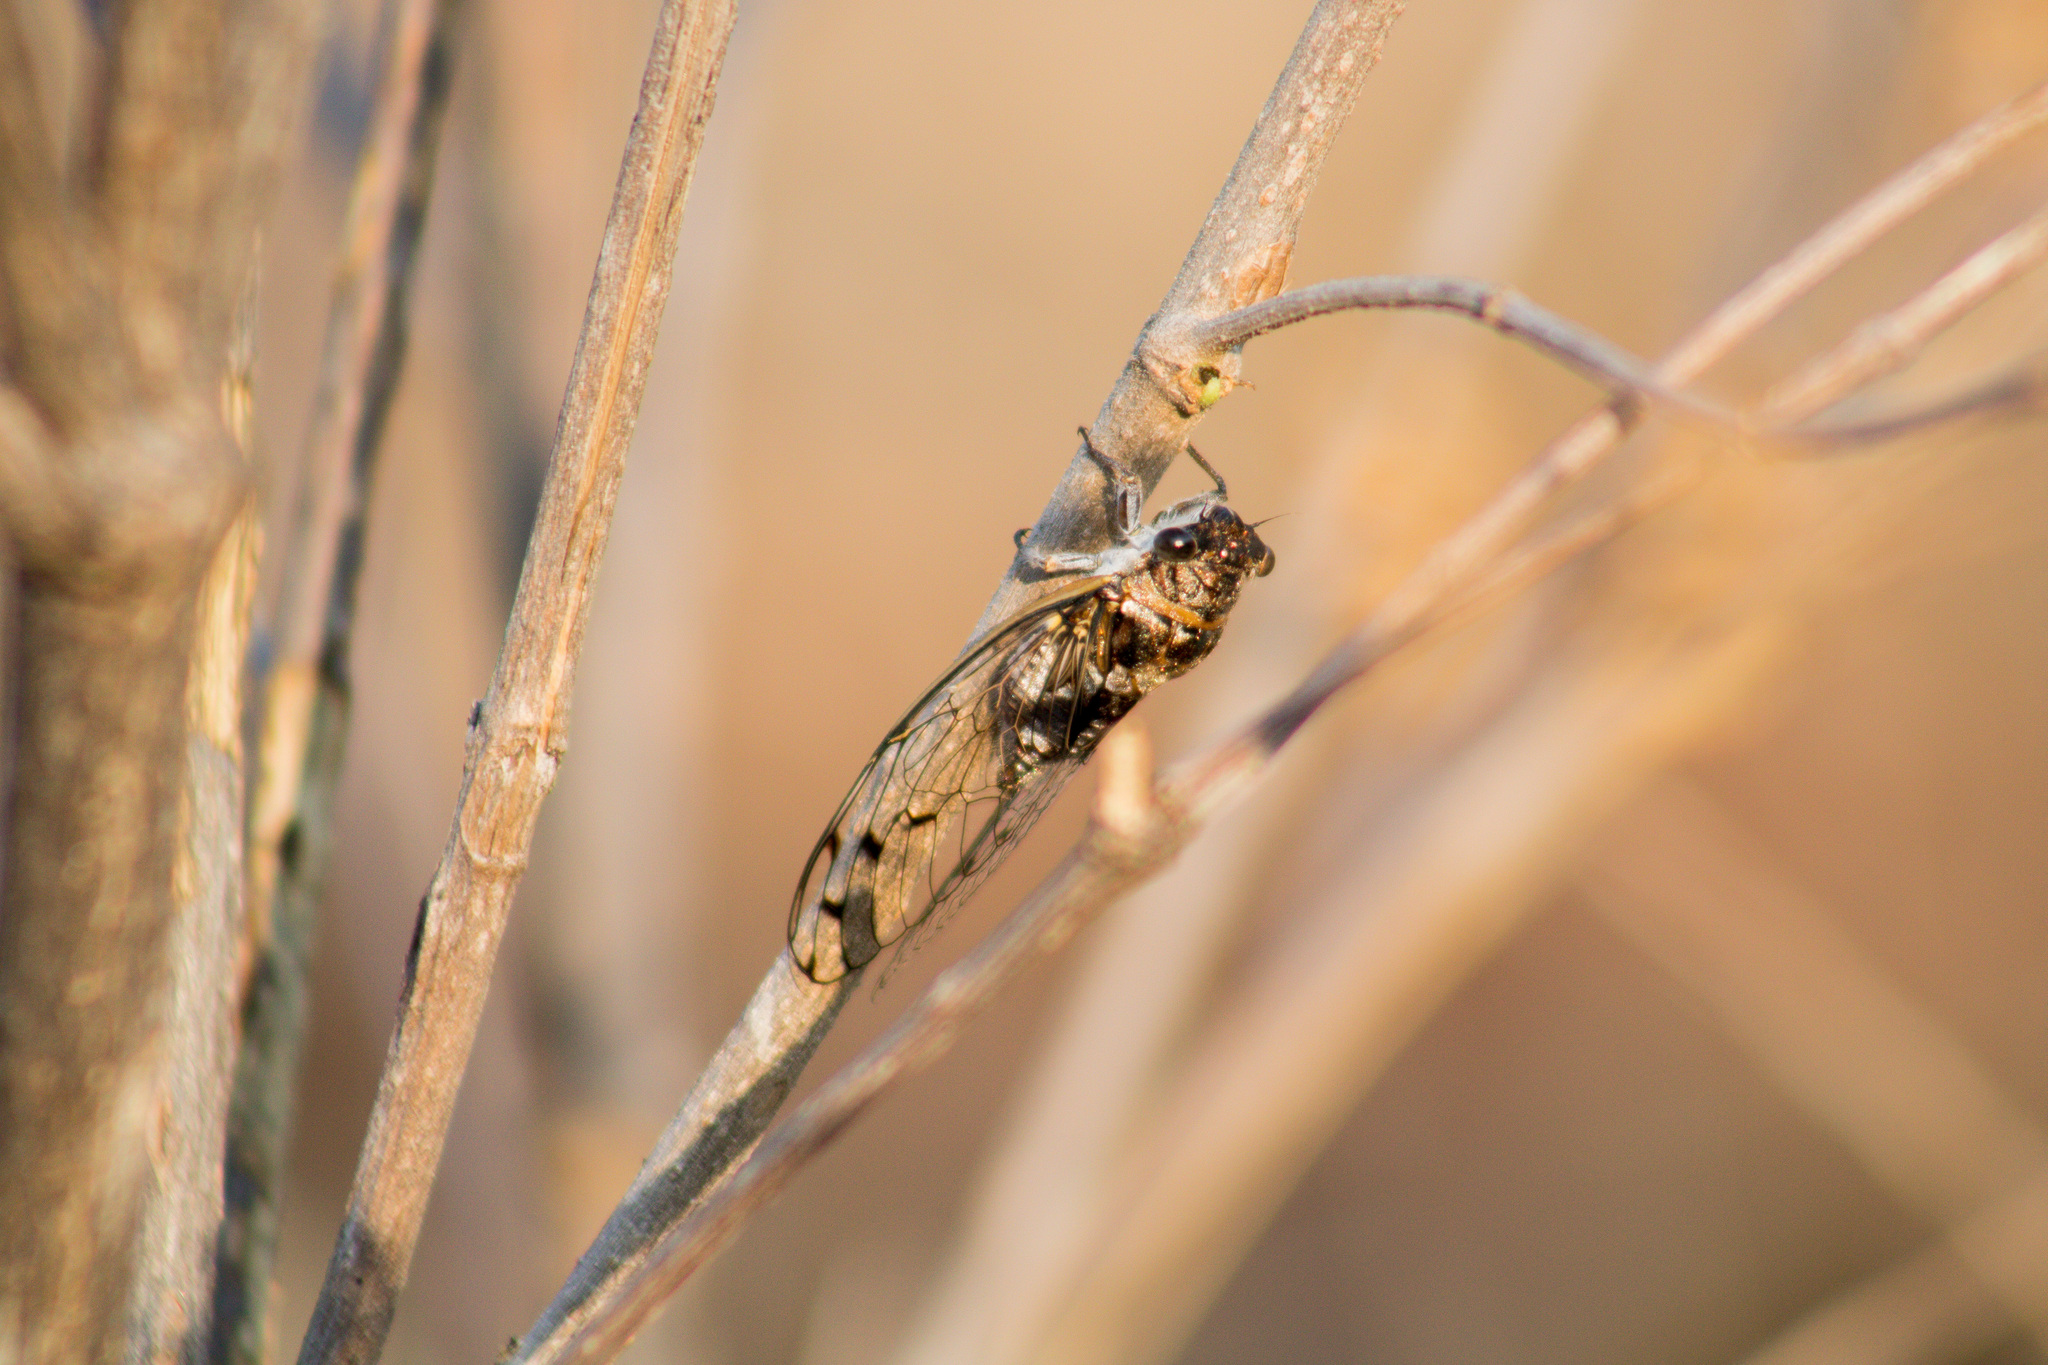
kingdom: Animalia
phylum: Arthropoda
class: Insecta
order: Hemiptera
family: Cicadidae
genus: Diceroprocta
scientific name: Diceroprocta tepicana
